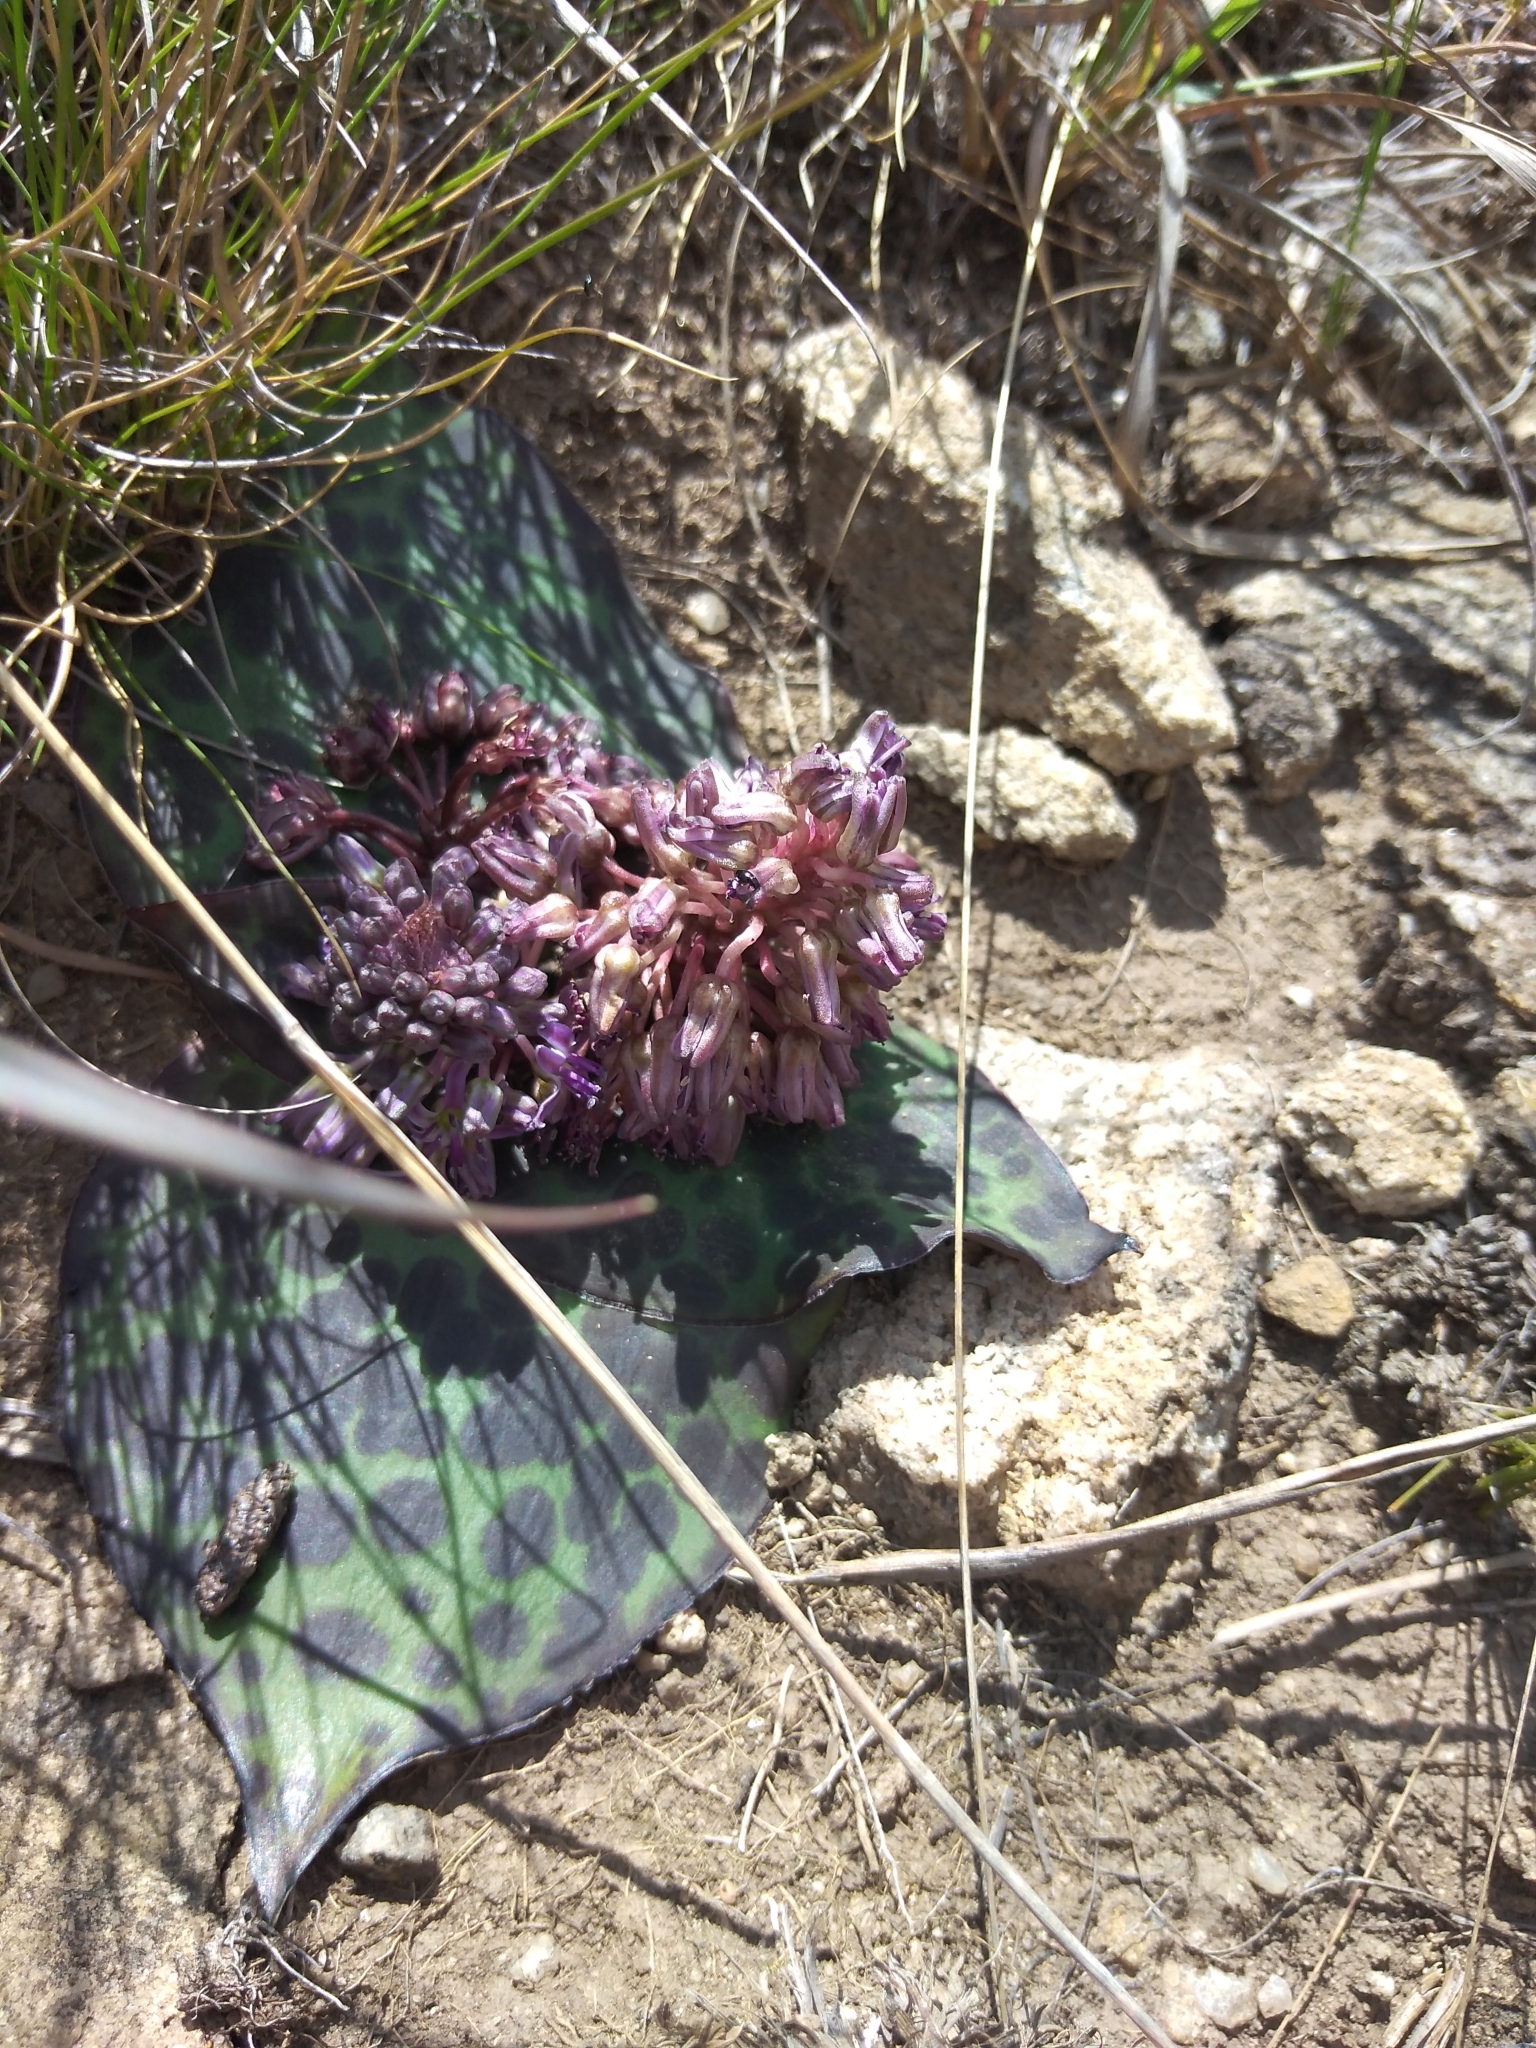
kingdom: Plantae
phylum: Tracheophyta
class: Liliopsida
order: Asparagales
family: Asparagaceae
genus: Ledebouria
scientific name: Ledebouria ovatifolia
